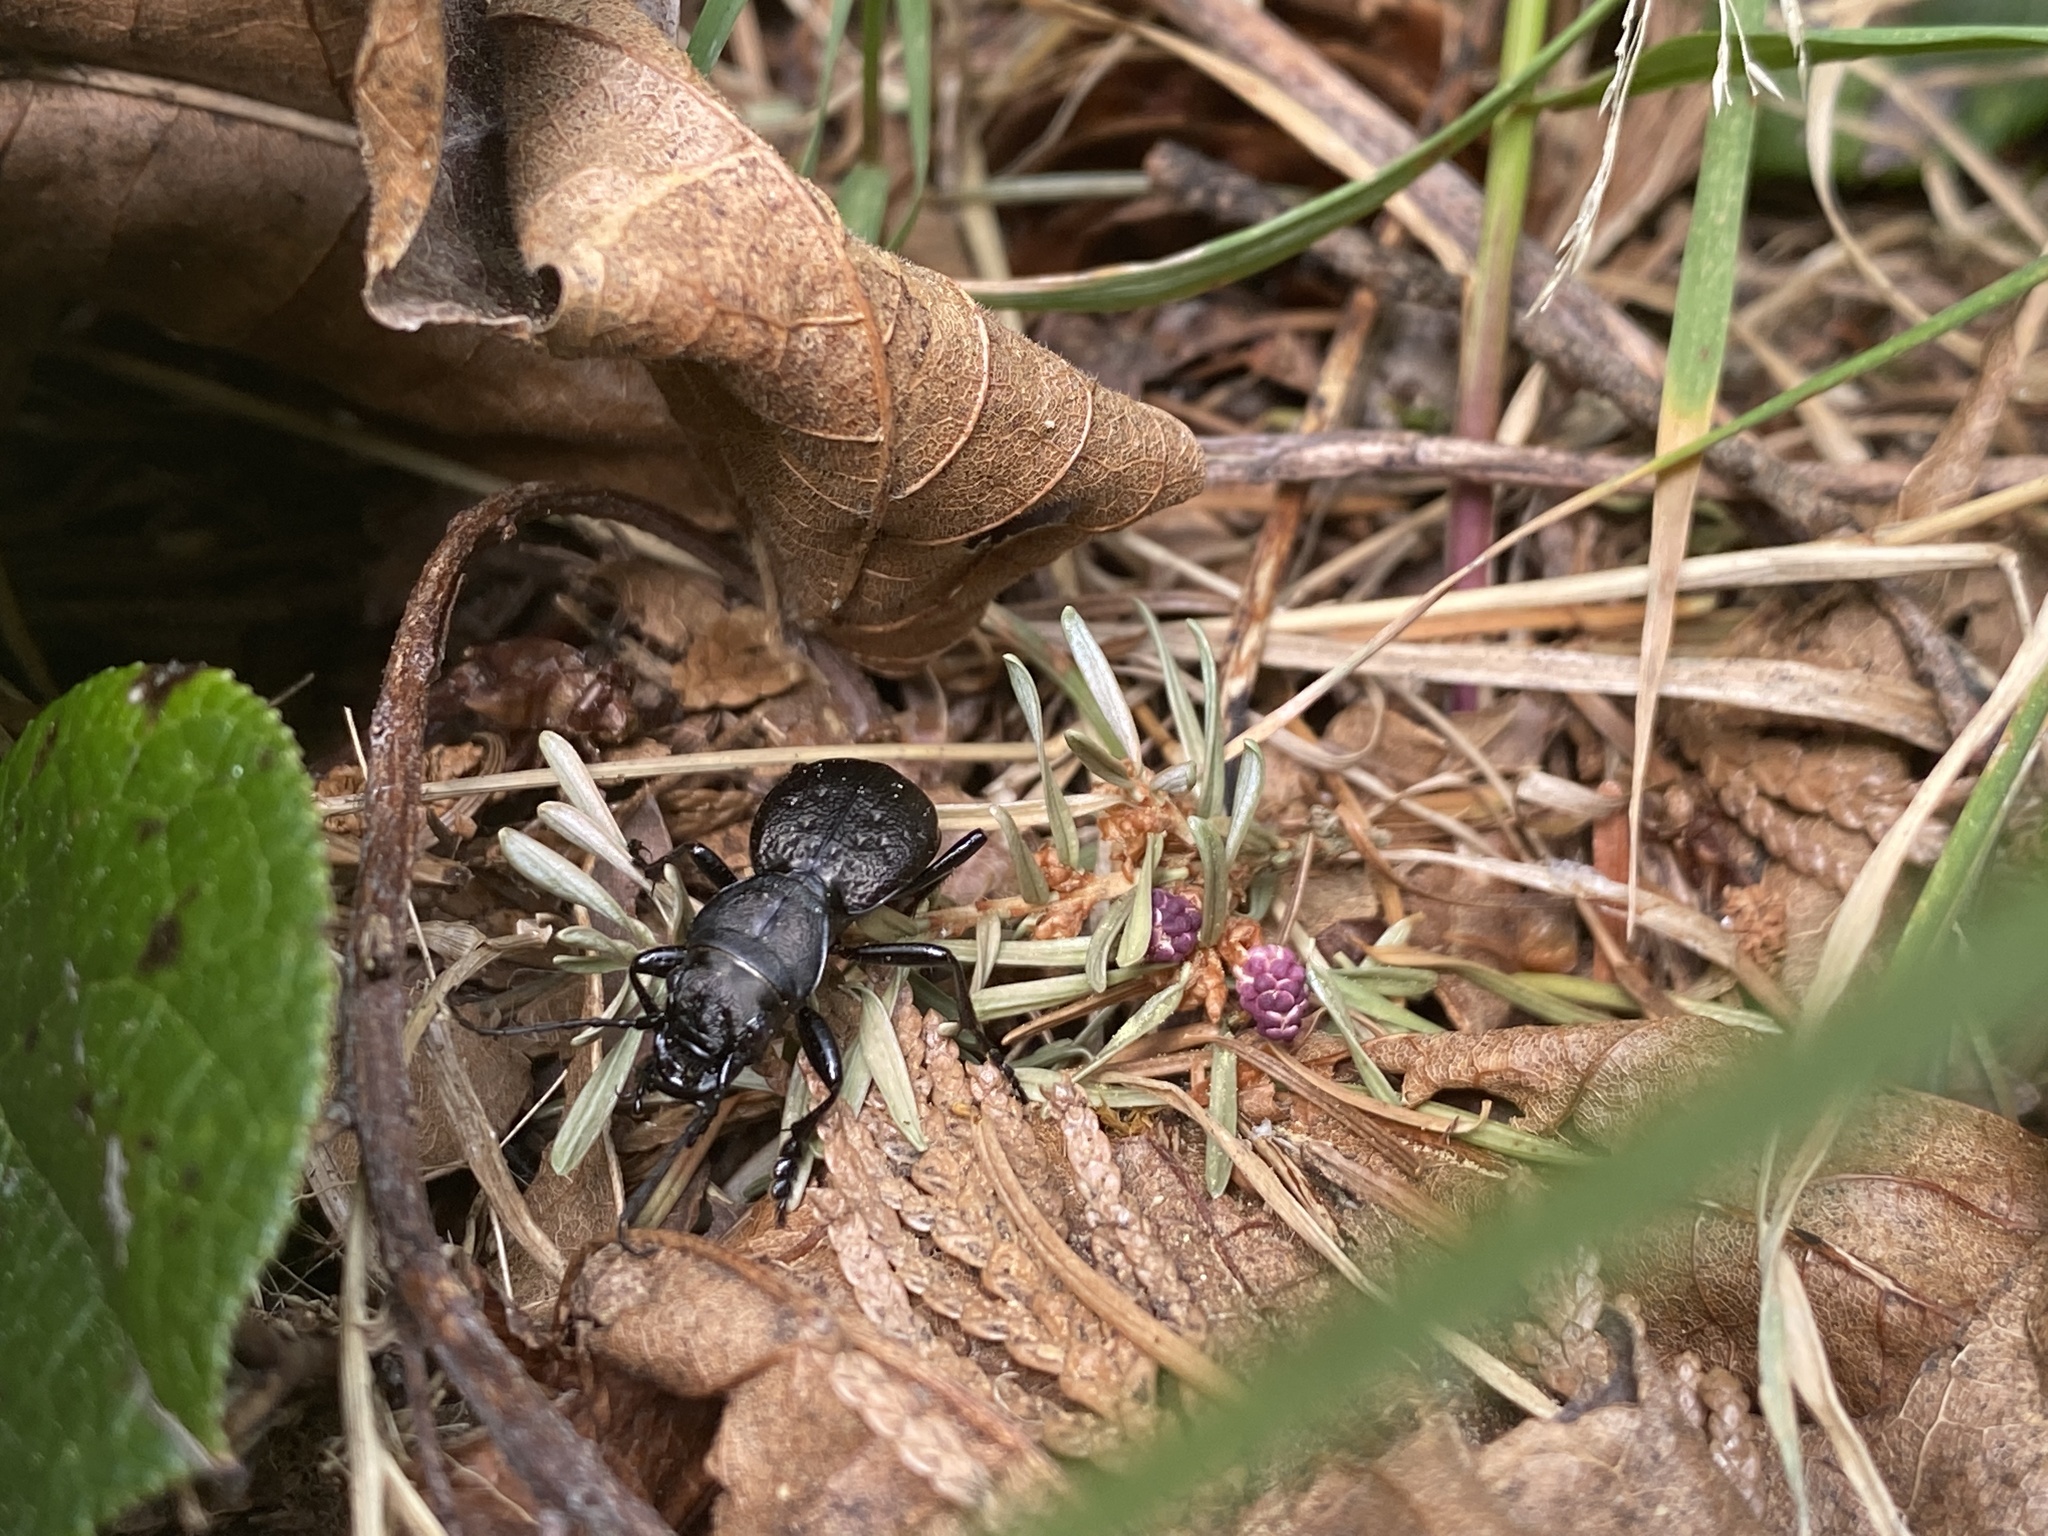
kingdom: Animalia
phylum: Arthropoda
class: Insecta
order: Coleoptera
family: Carabidae
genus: Omus
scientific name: Omus dejeanii
